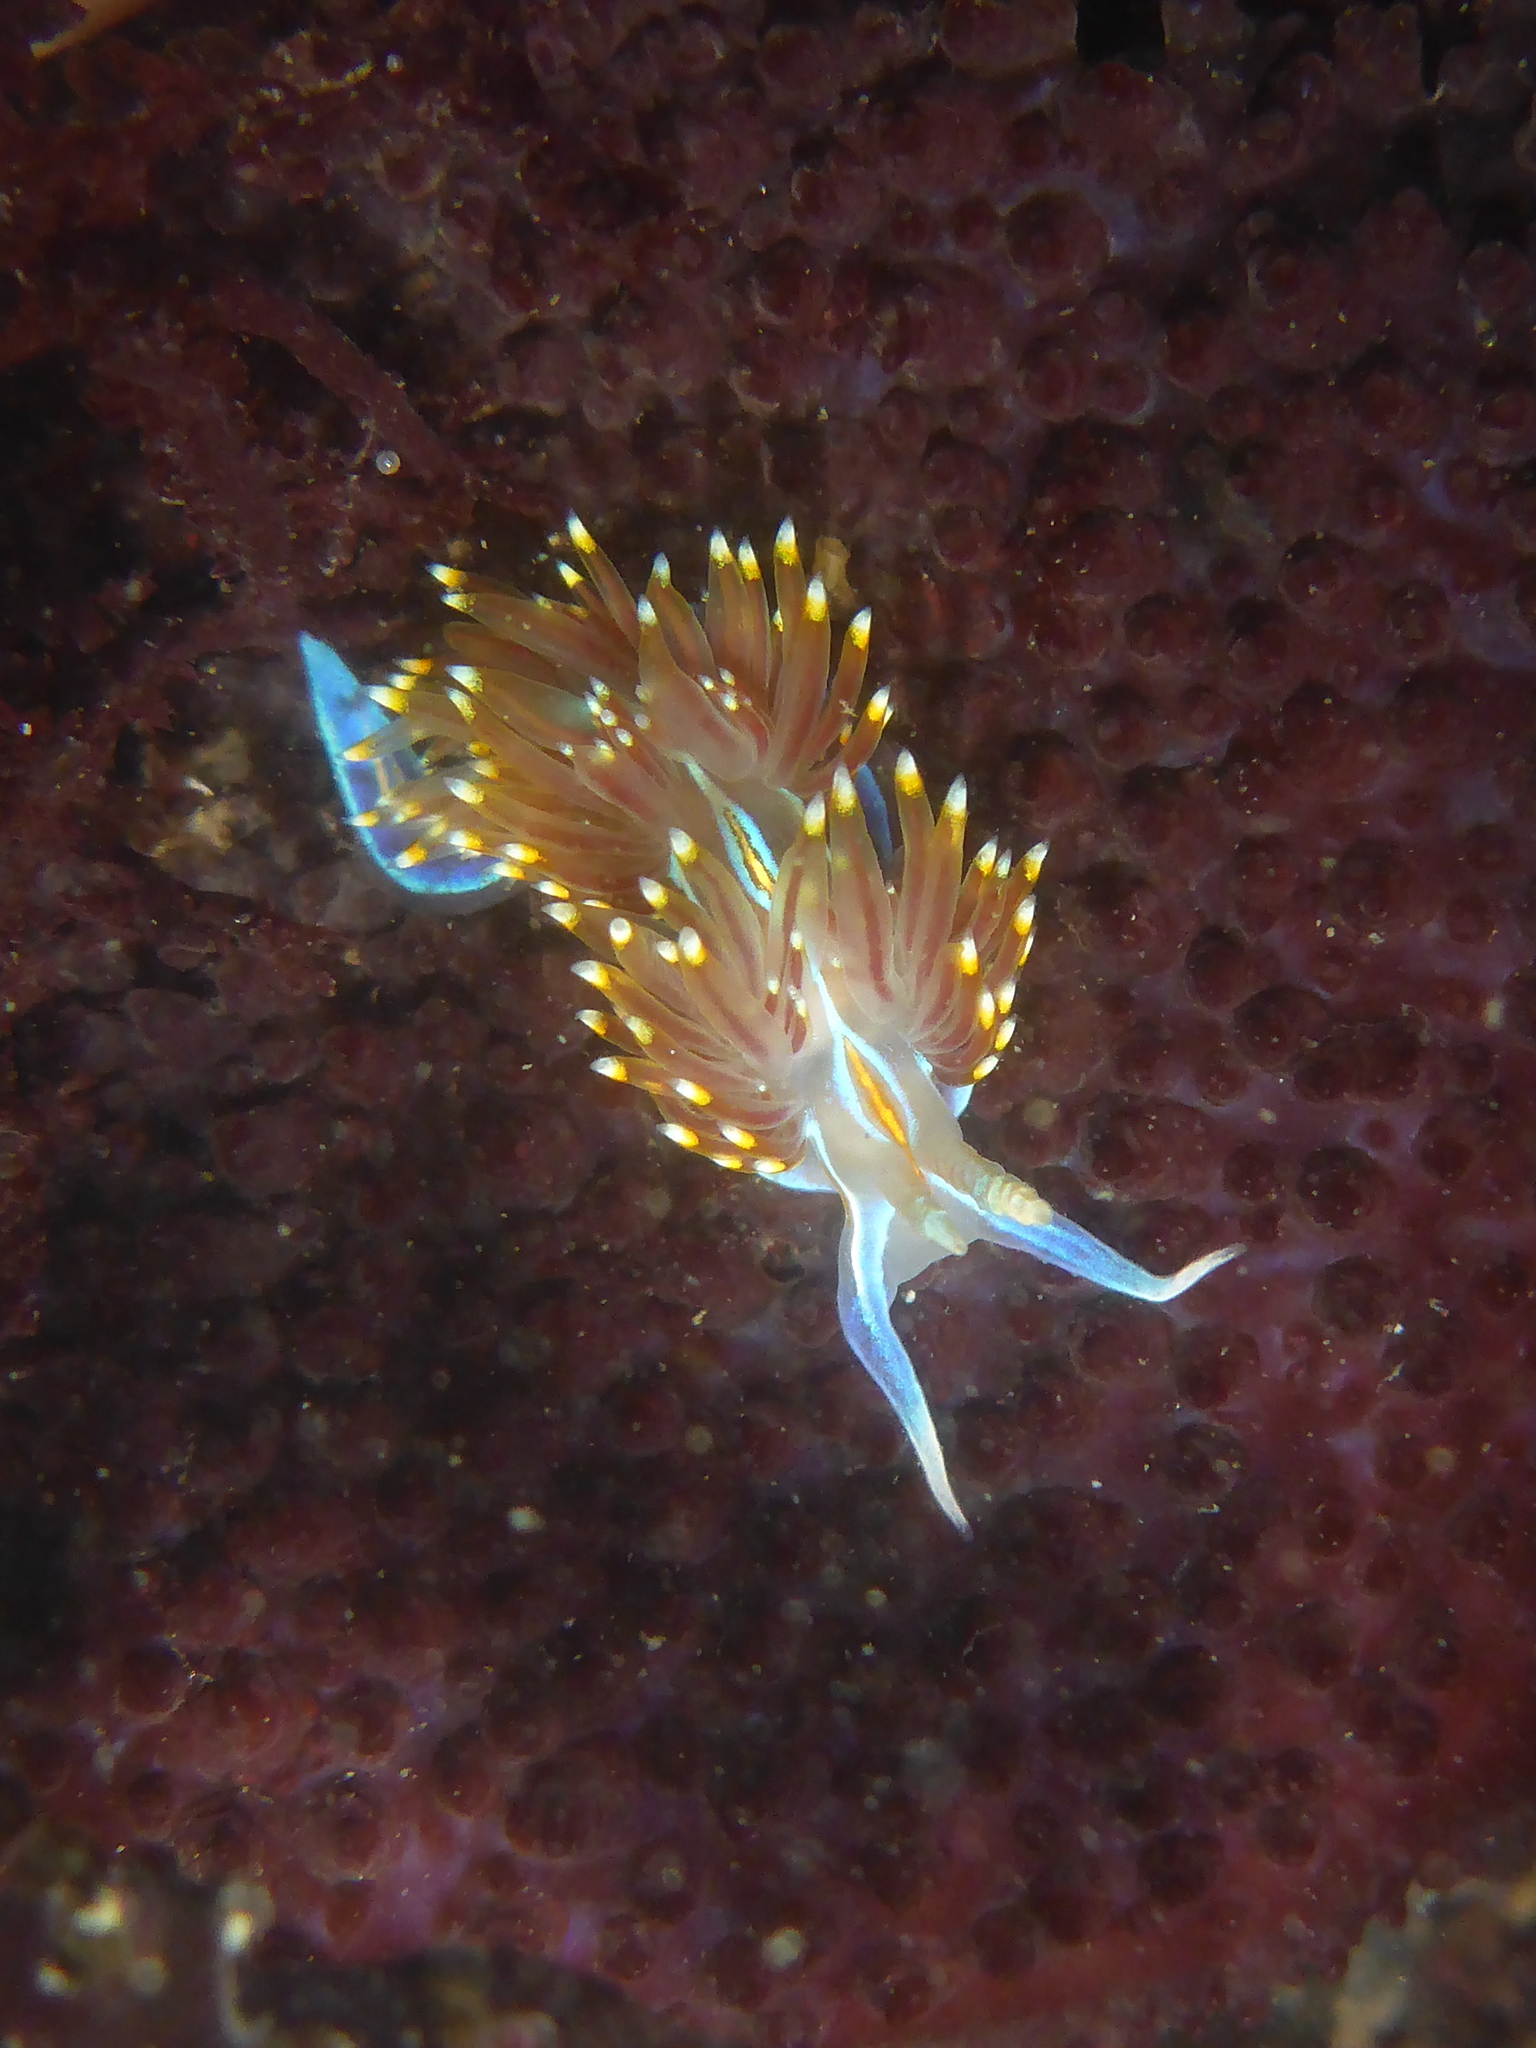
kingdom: Animalia
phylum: Mollusca
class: Gastropoda
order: Nudibranchia
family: Myrrhinidae
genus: Hermissenda
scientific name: Hermissenda opalescens
